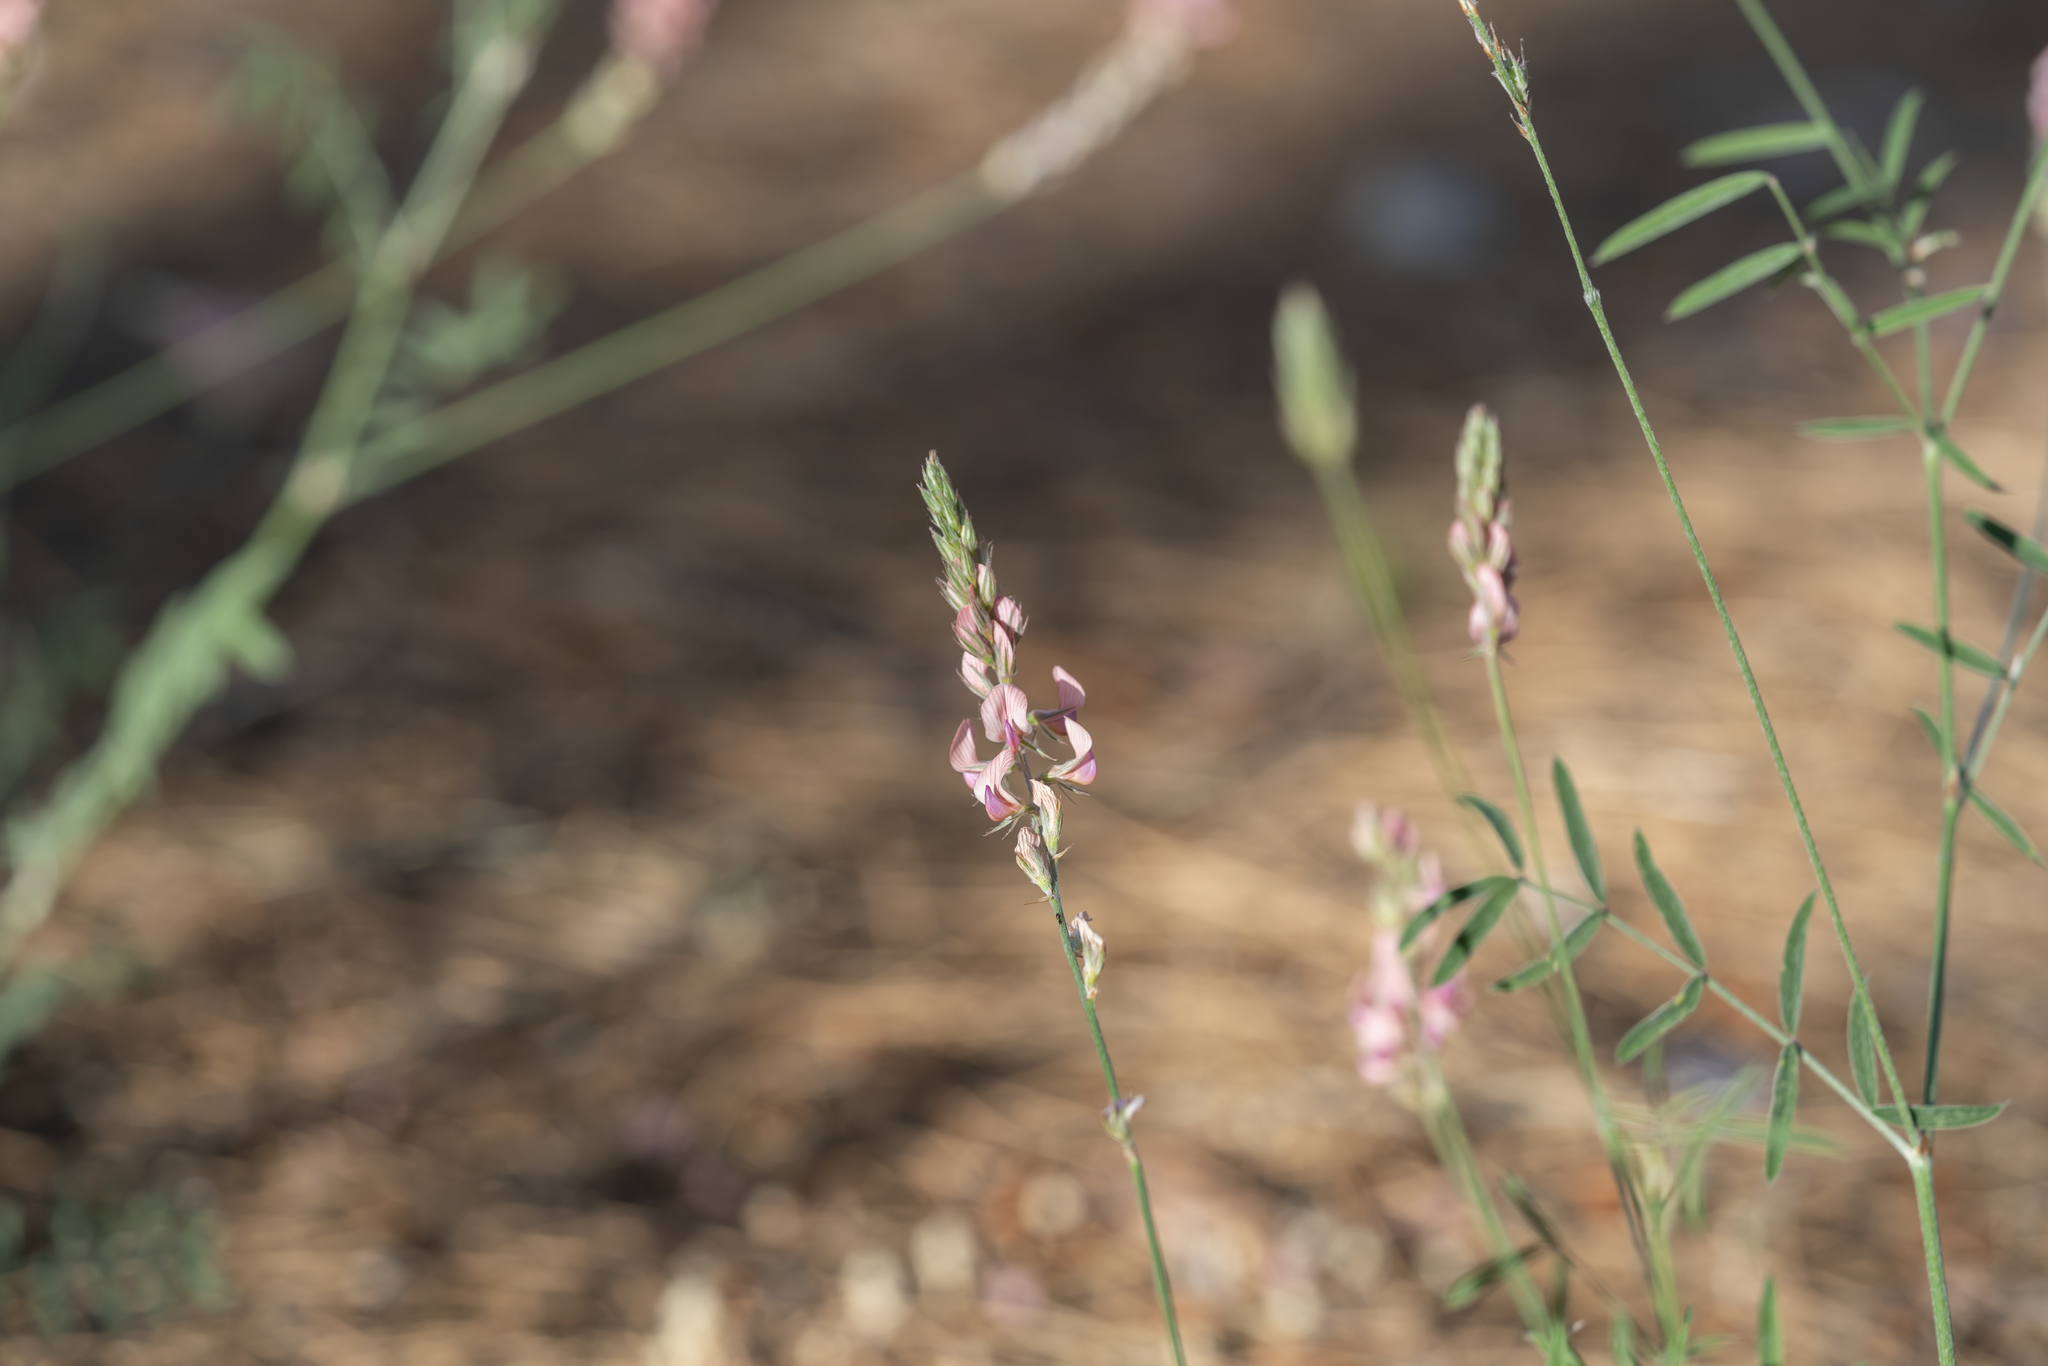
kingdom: Plantae
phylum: Tracheophyta
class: Magnoliopsida
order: Fabales
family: Fabaceae
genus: Onobrychis
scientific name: Onobrychis gracilis
